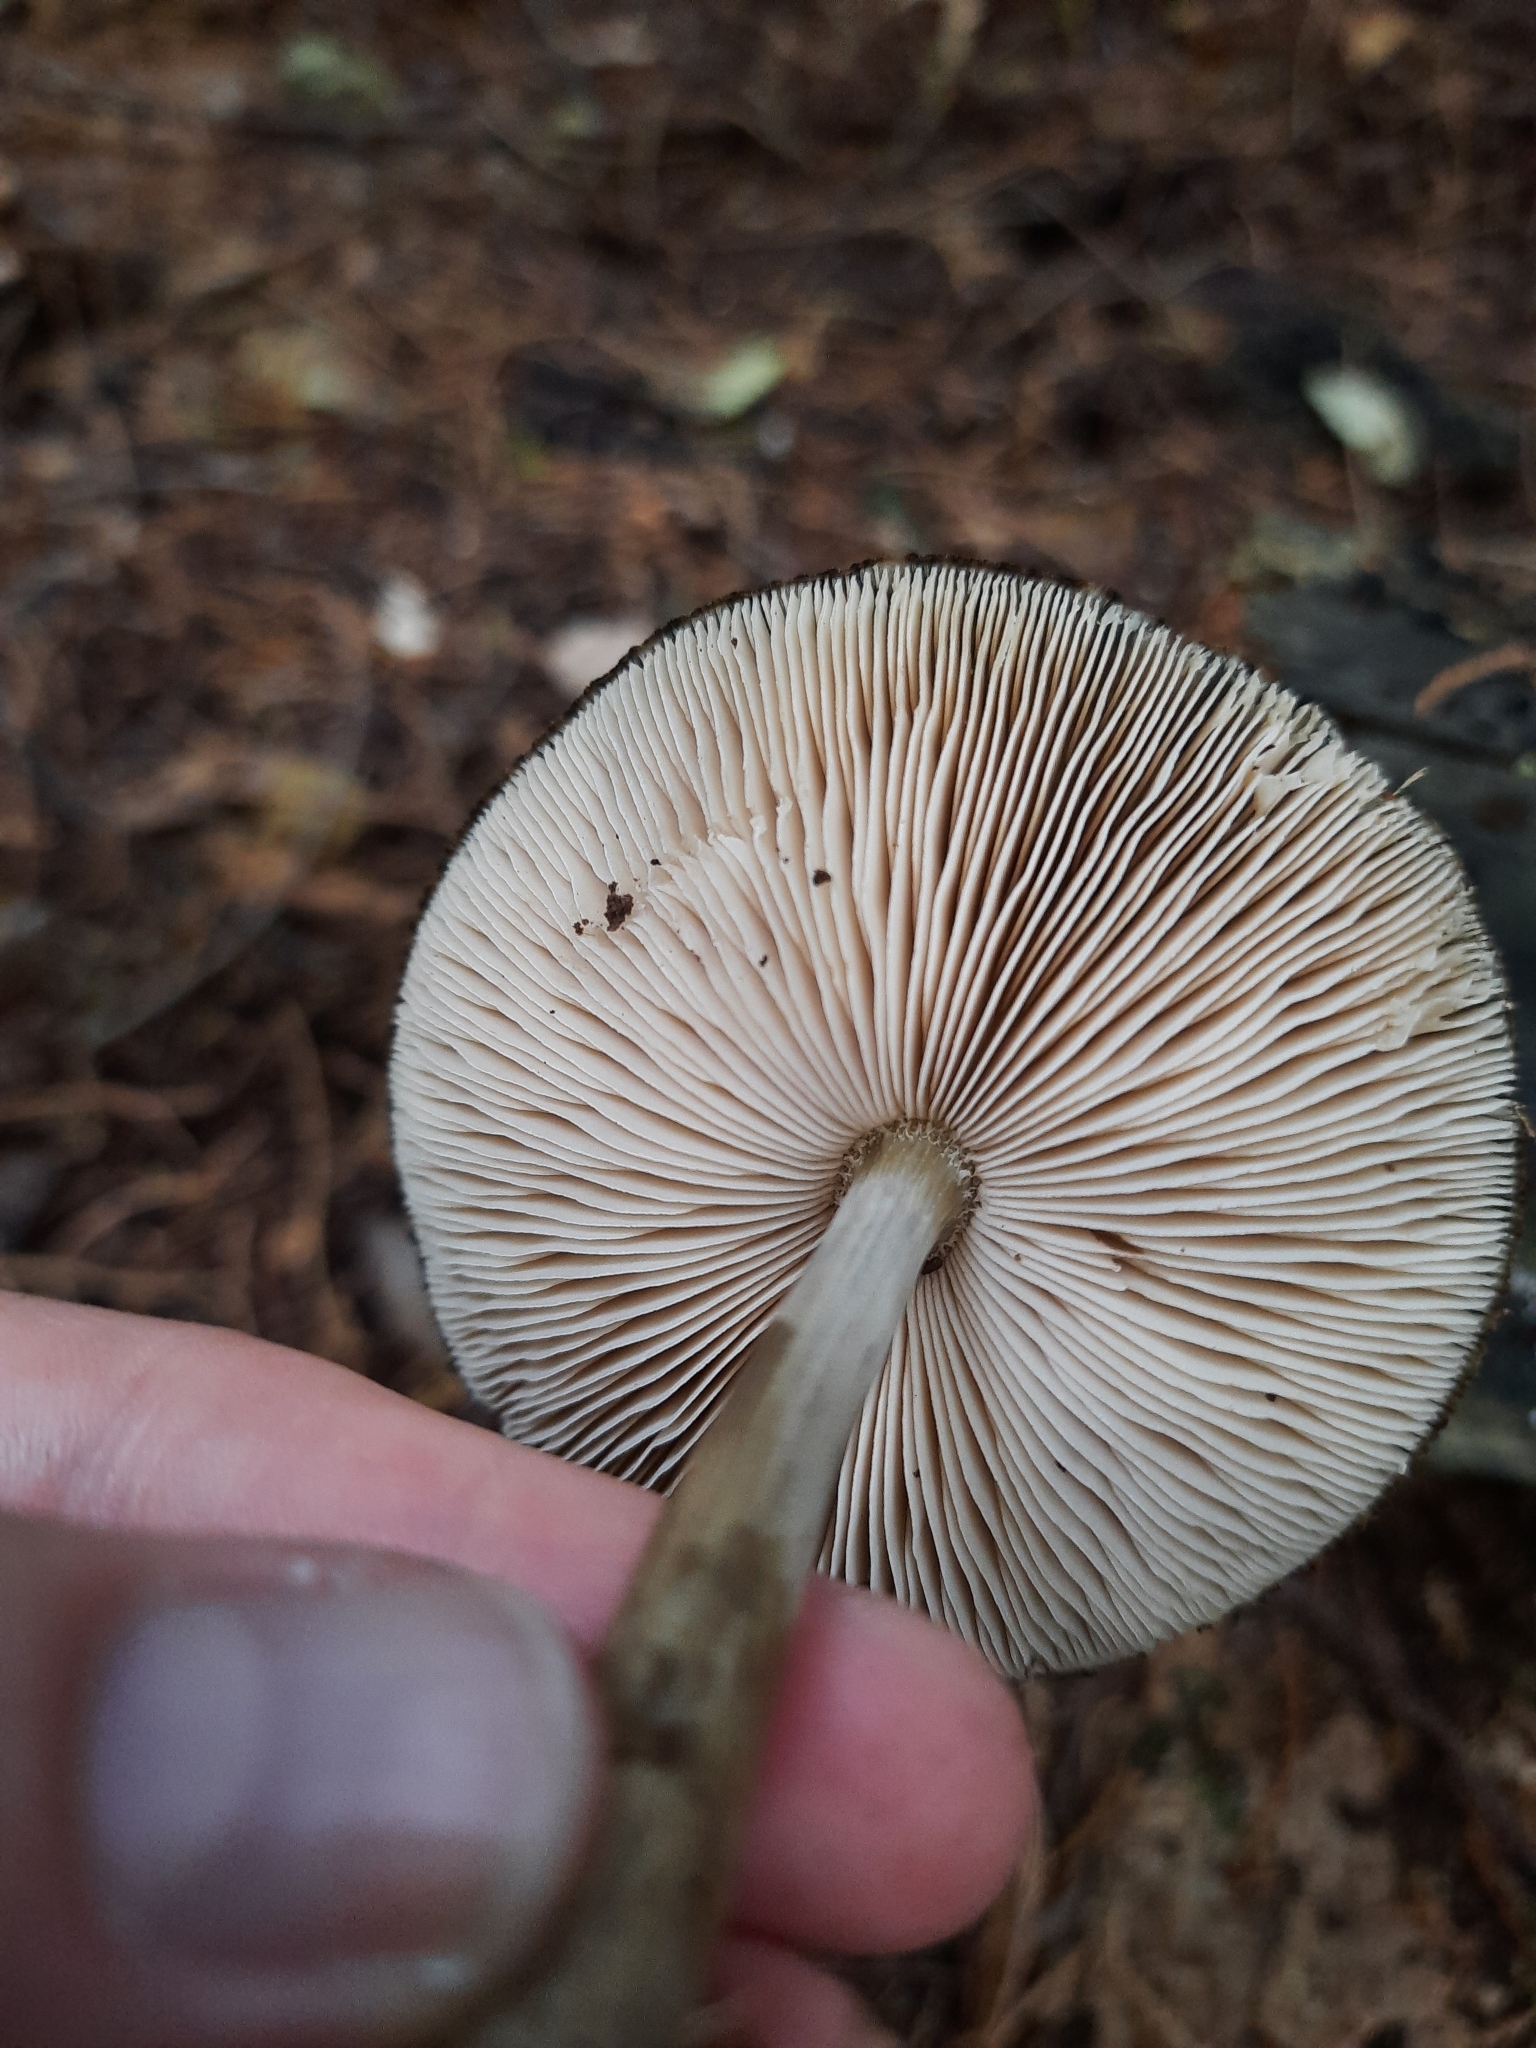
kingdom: Fungi
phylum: Basidiomycota
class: Agaricomycetes
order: Agaricales
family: Pluteaceae
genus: Pluteus
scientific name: Pluteus readiarum
